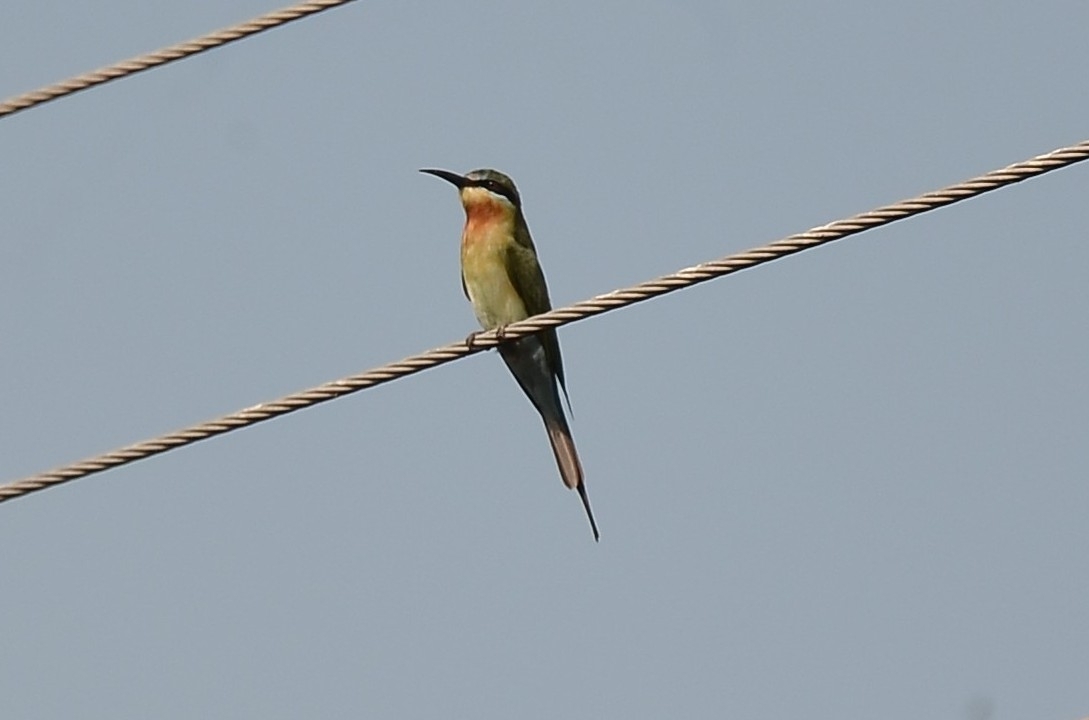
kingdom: Animalia
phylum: Chordata
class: Aves
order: Coraciiformes
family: Meropidae
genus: Merops
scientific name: Merops philippinus
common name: Blue-tailed bee-eater
